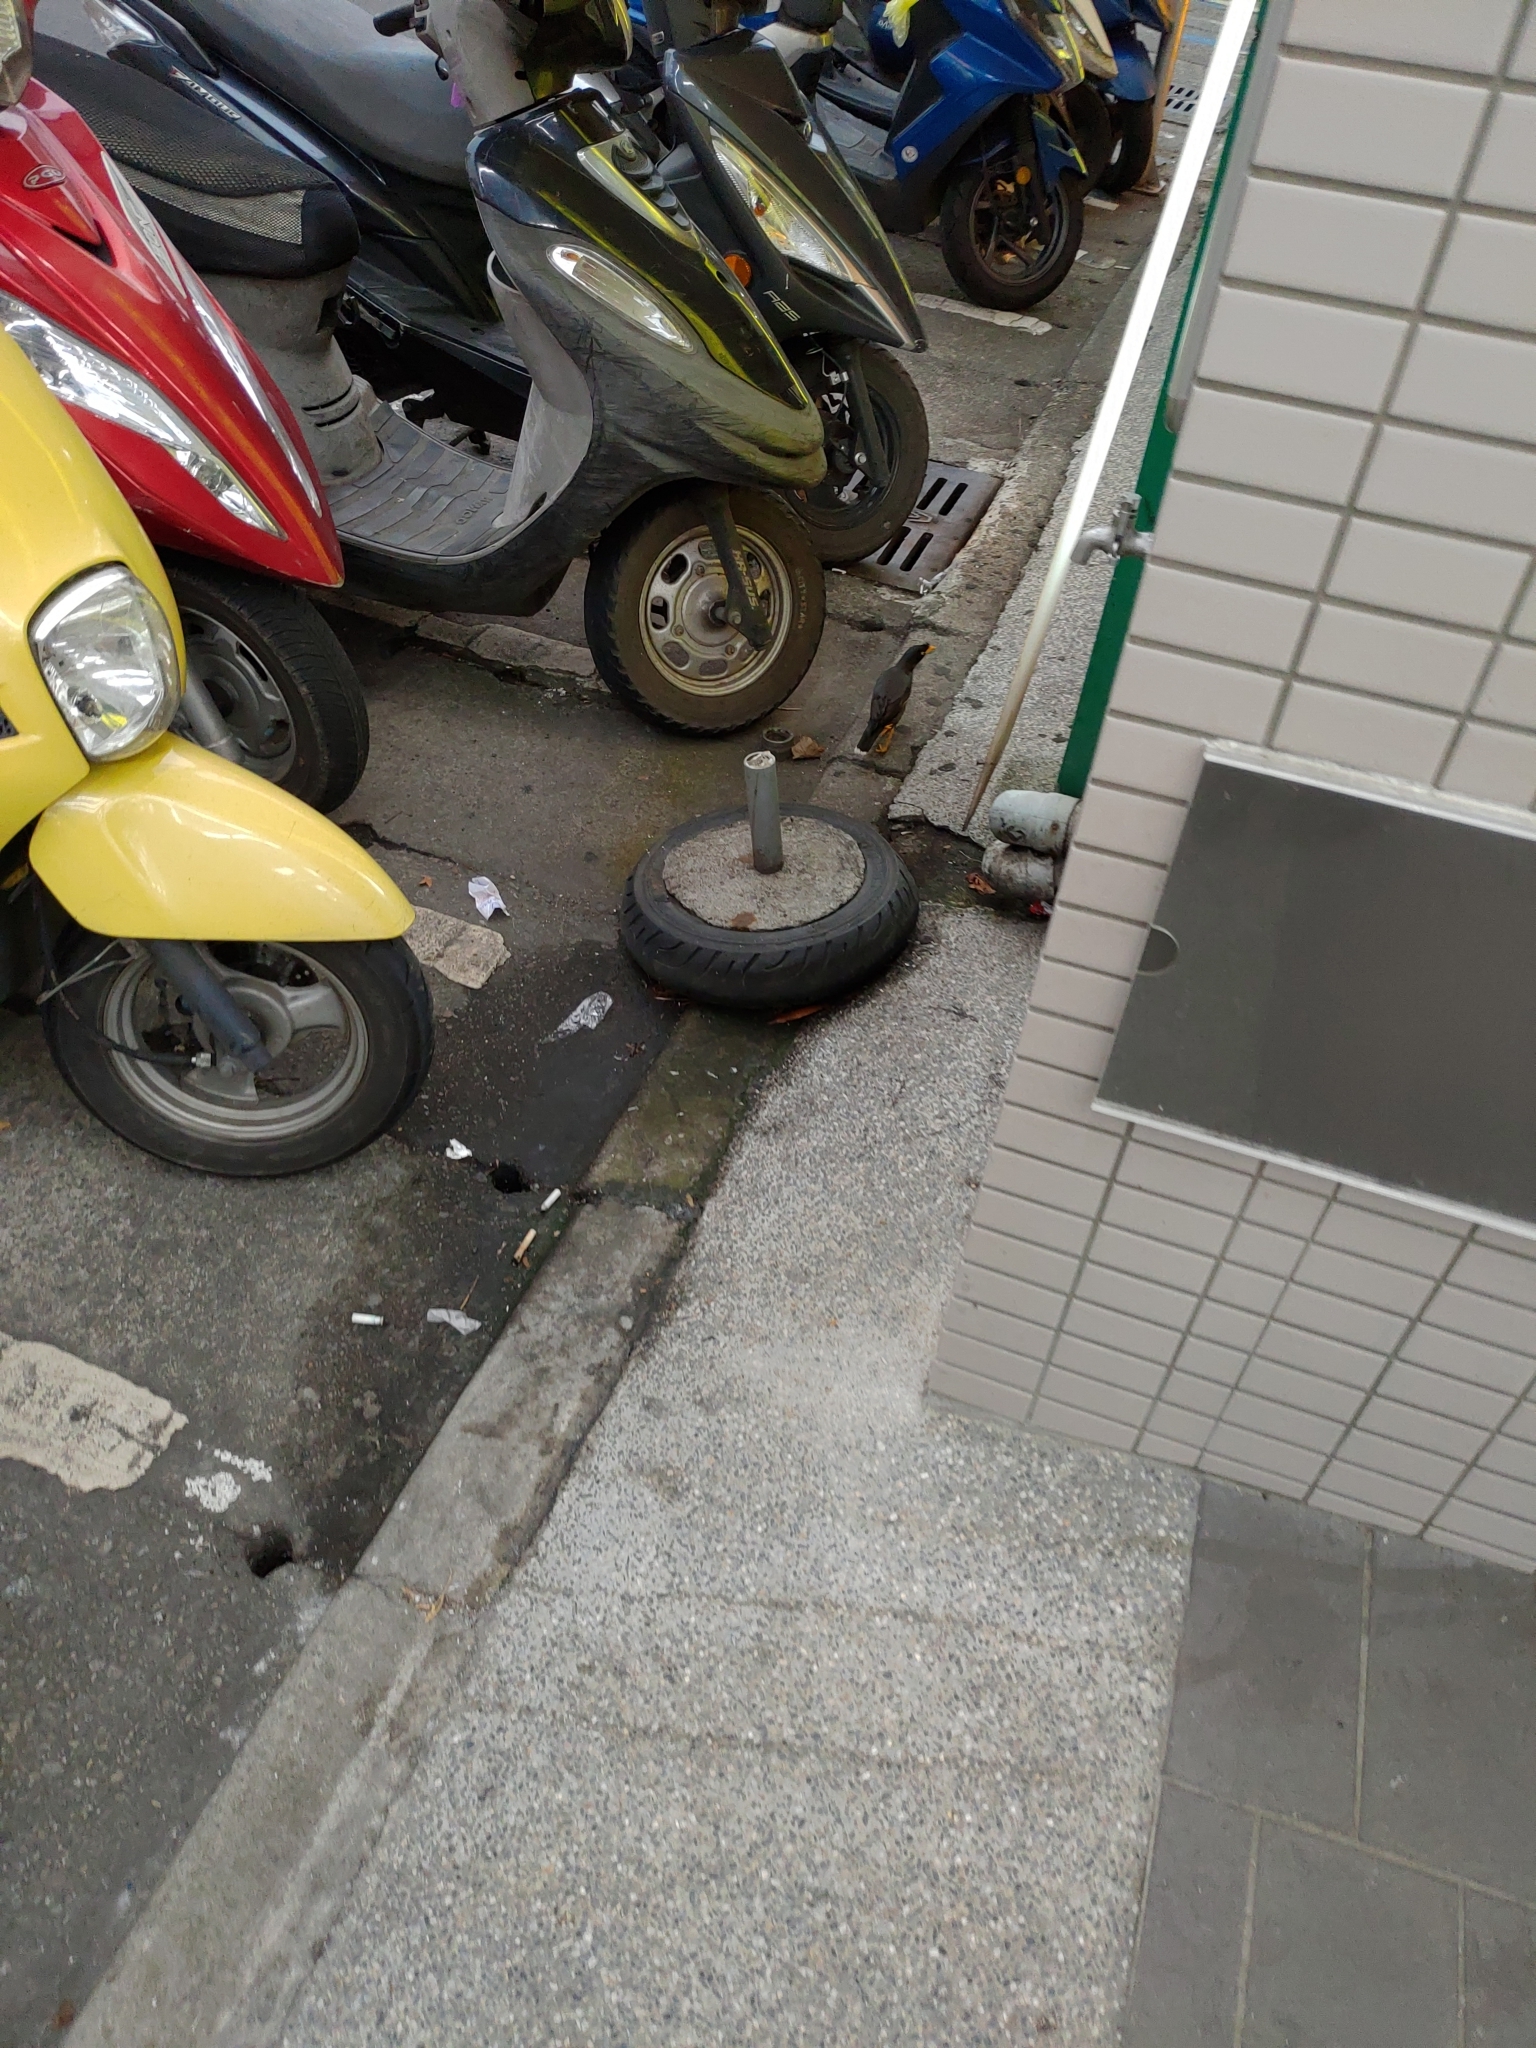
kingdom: Animalia
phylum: Chordata
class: Aves
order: Passeriformes
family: Sturnidae
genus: Acridotheres
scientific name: Acridotheres javanicus
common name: Javan myna
